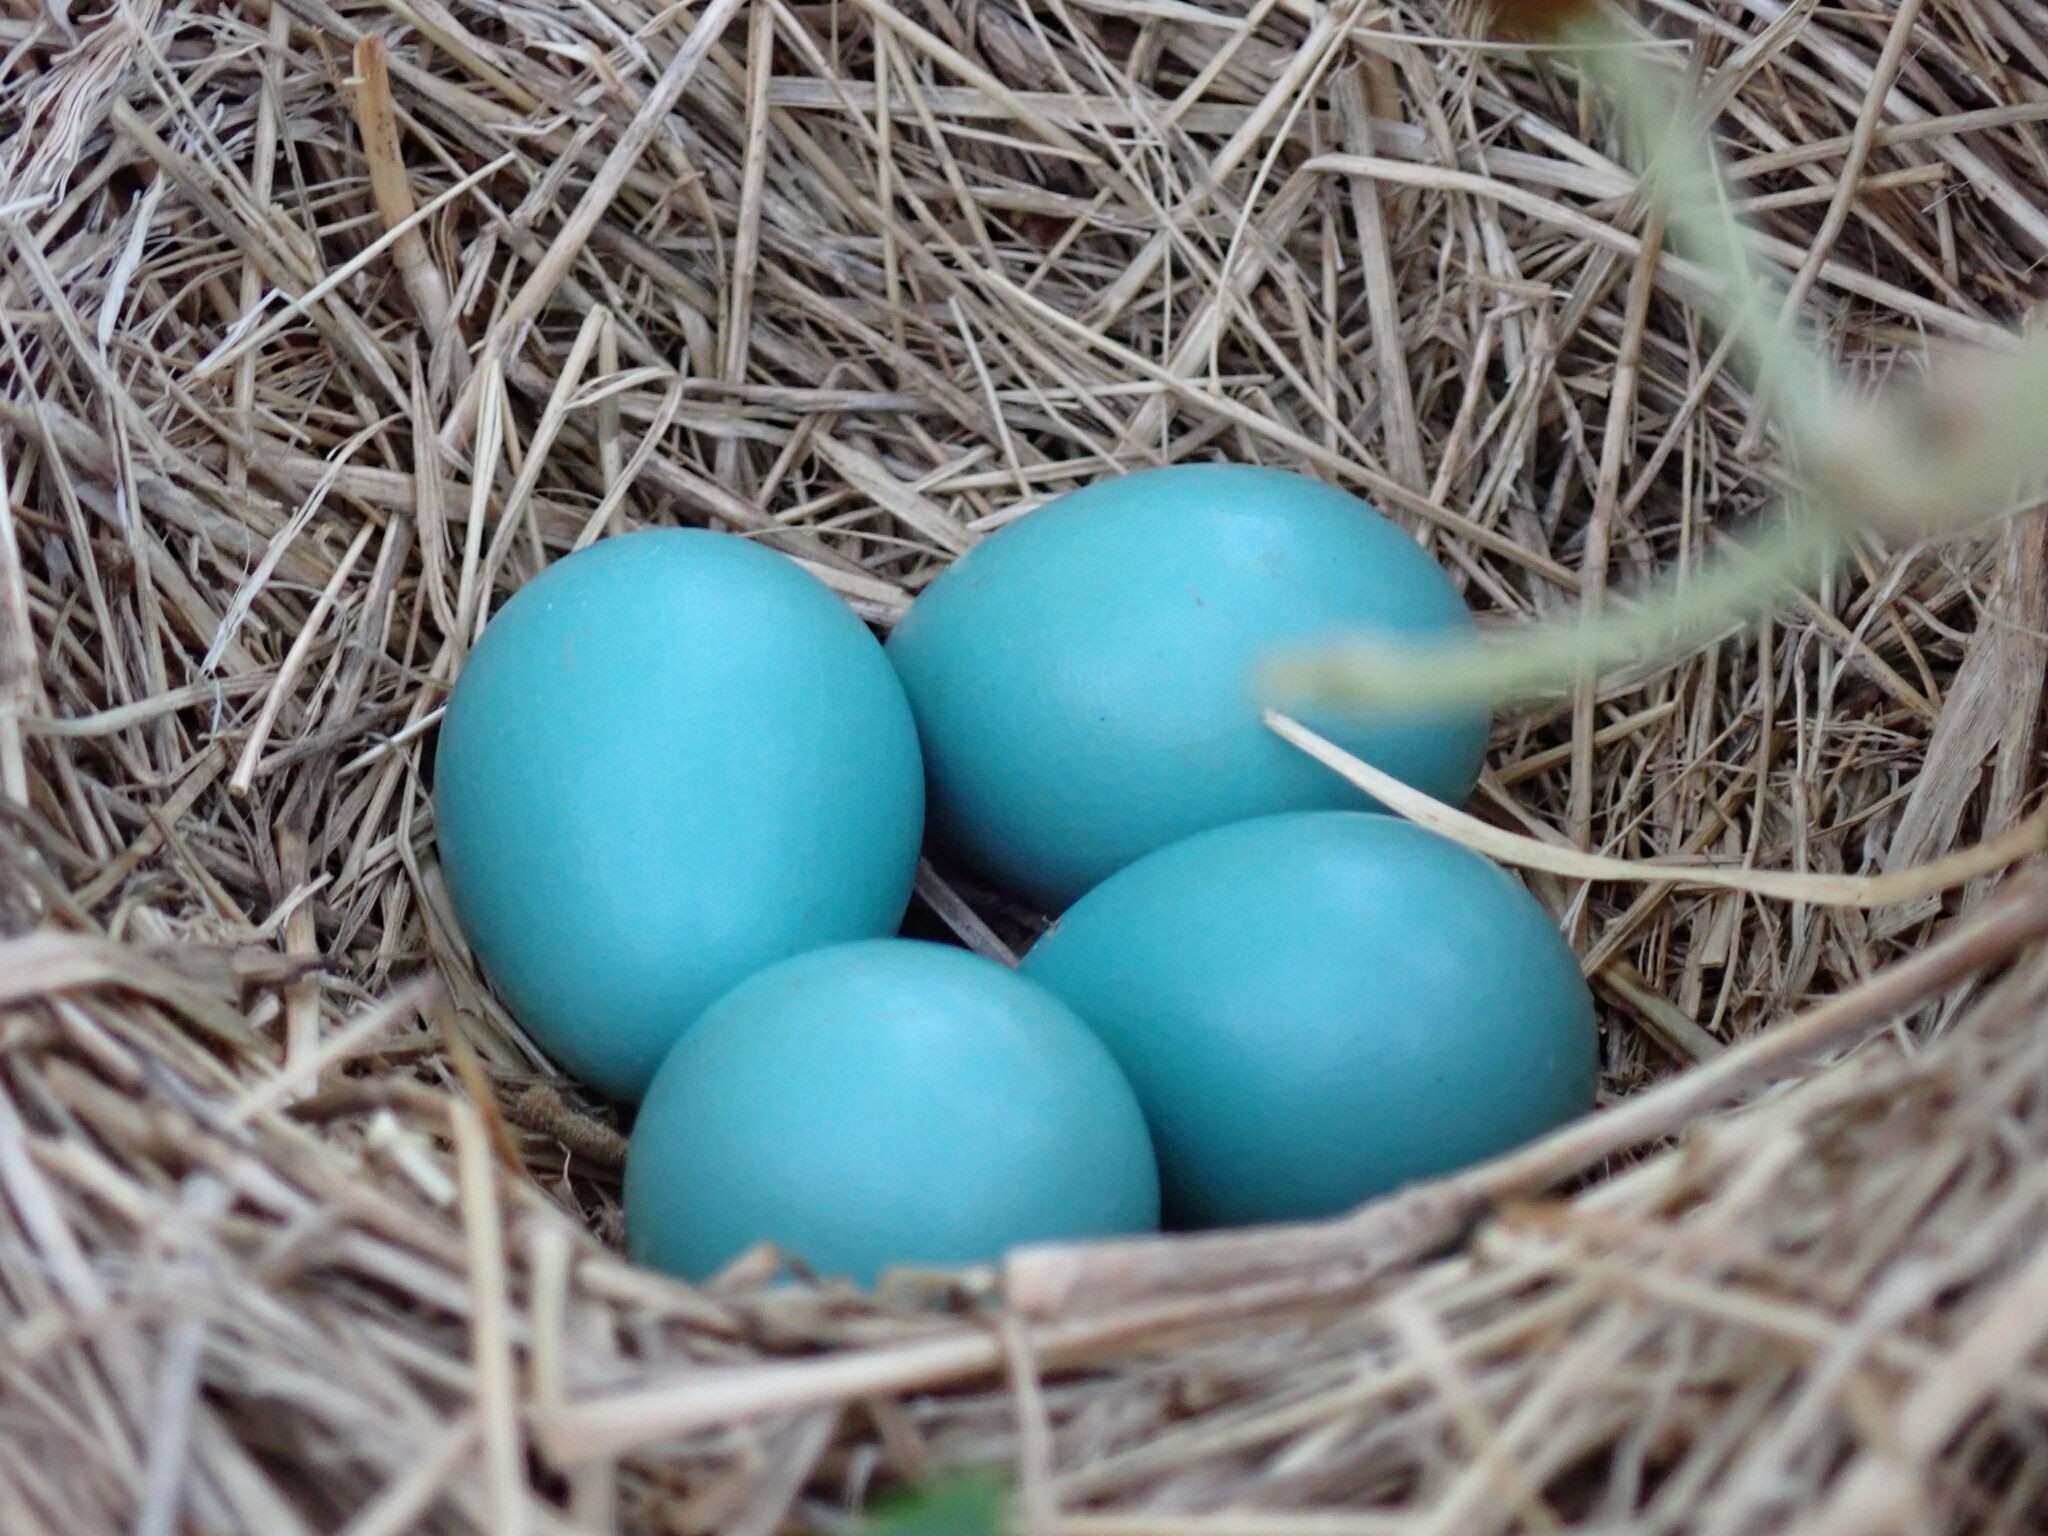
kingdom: Animalia
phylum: Chordata
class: Aves
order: Passeriformes
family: Turdidae
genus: Turdus
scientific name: Turdus migratorius
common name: American robin
